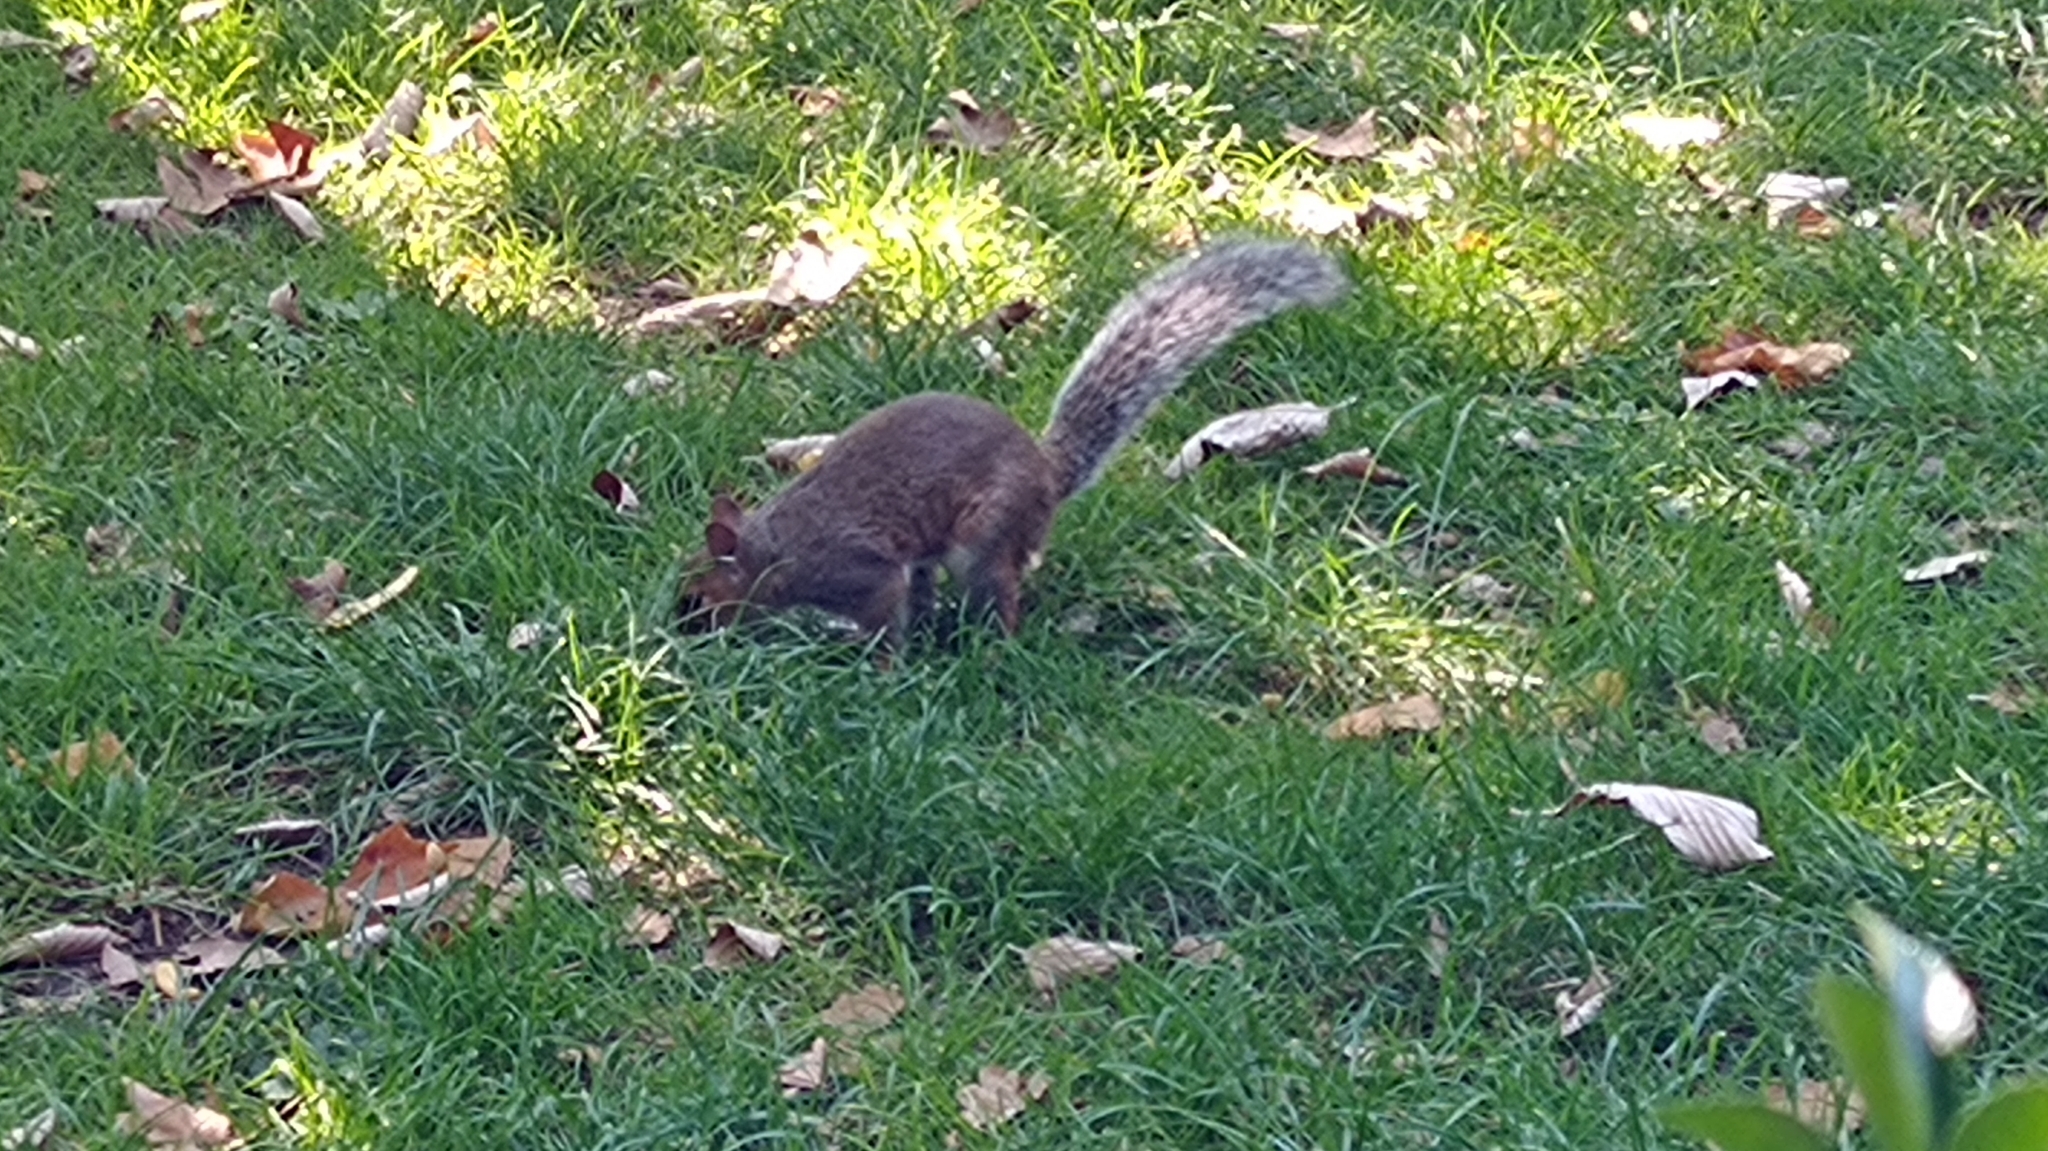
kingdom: Animalia
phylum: Chordata
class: Mammalia
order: Rodentia
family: Sciuridae
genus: Sciurus
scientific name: Sciurus carolinensis
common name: Eastern gray squirrel
